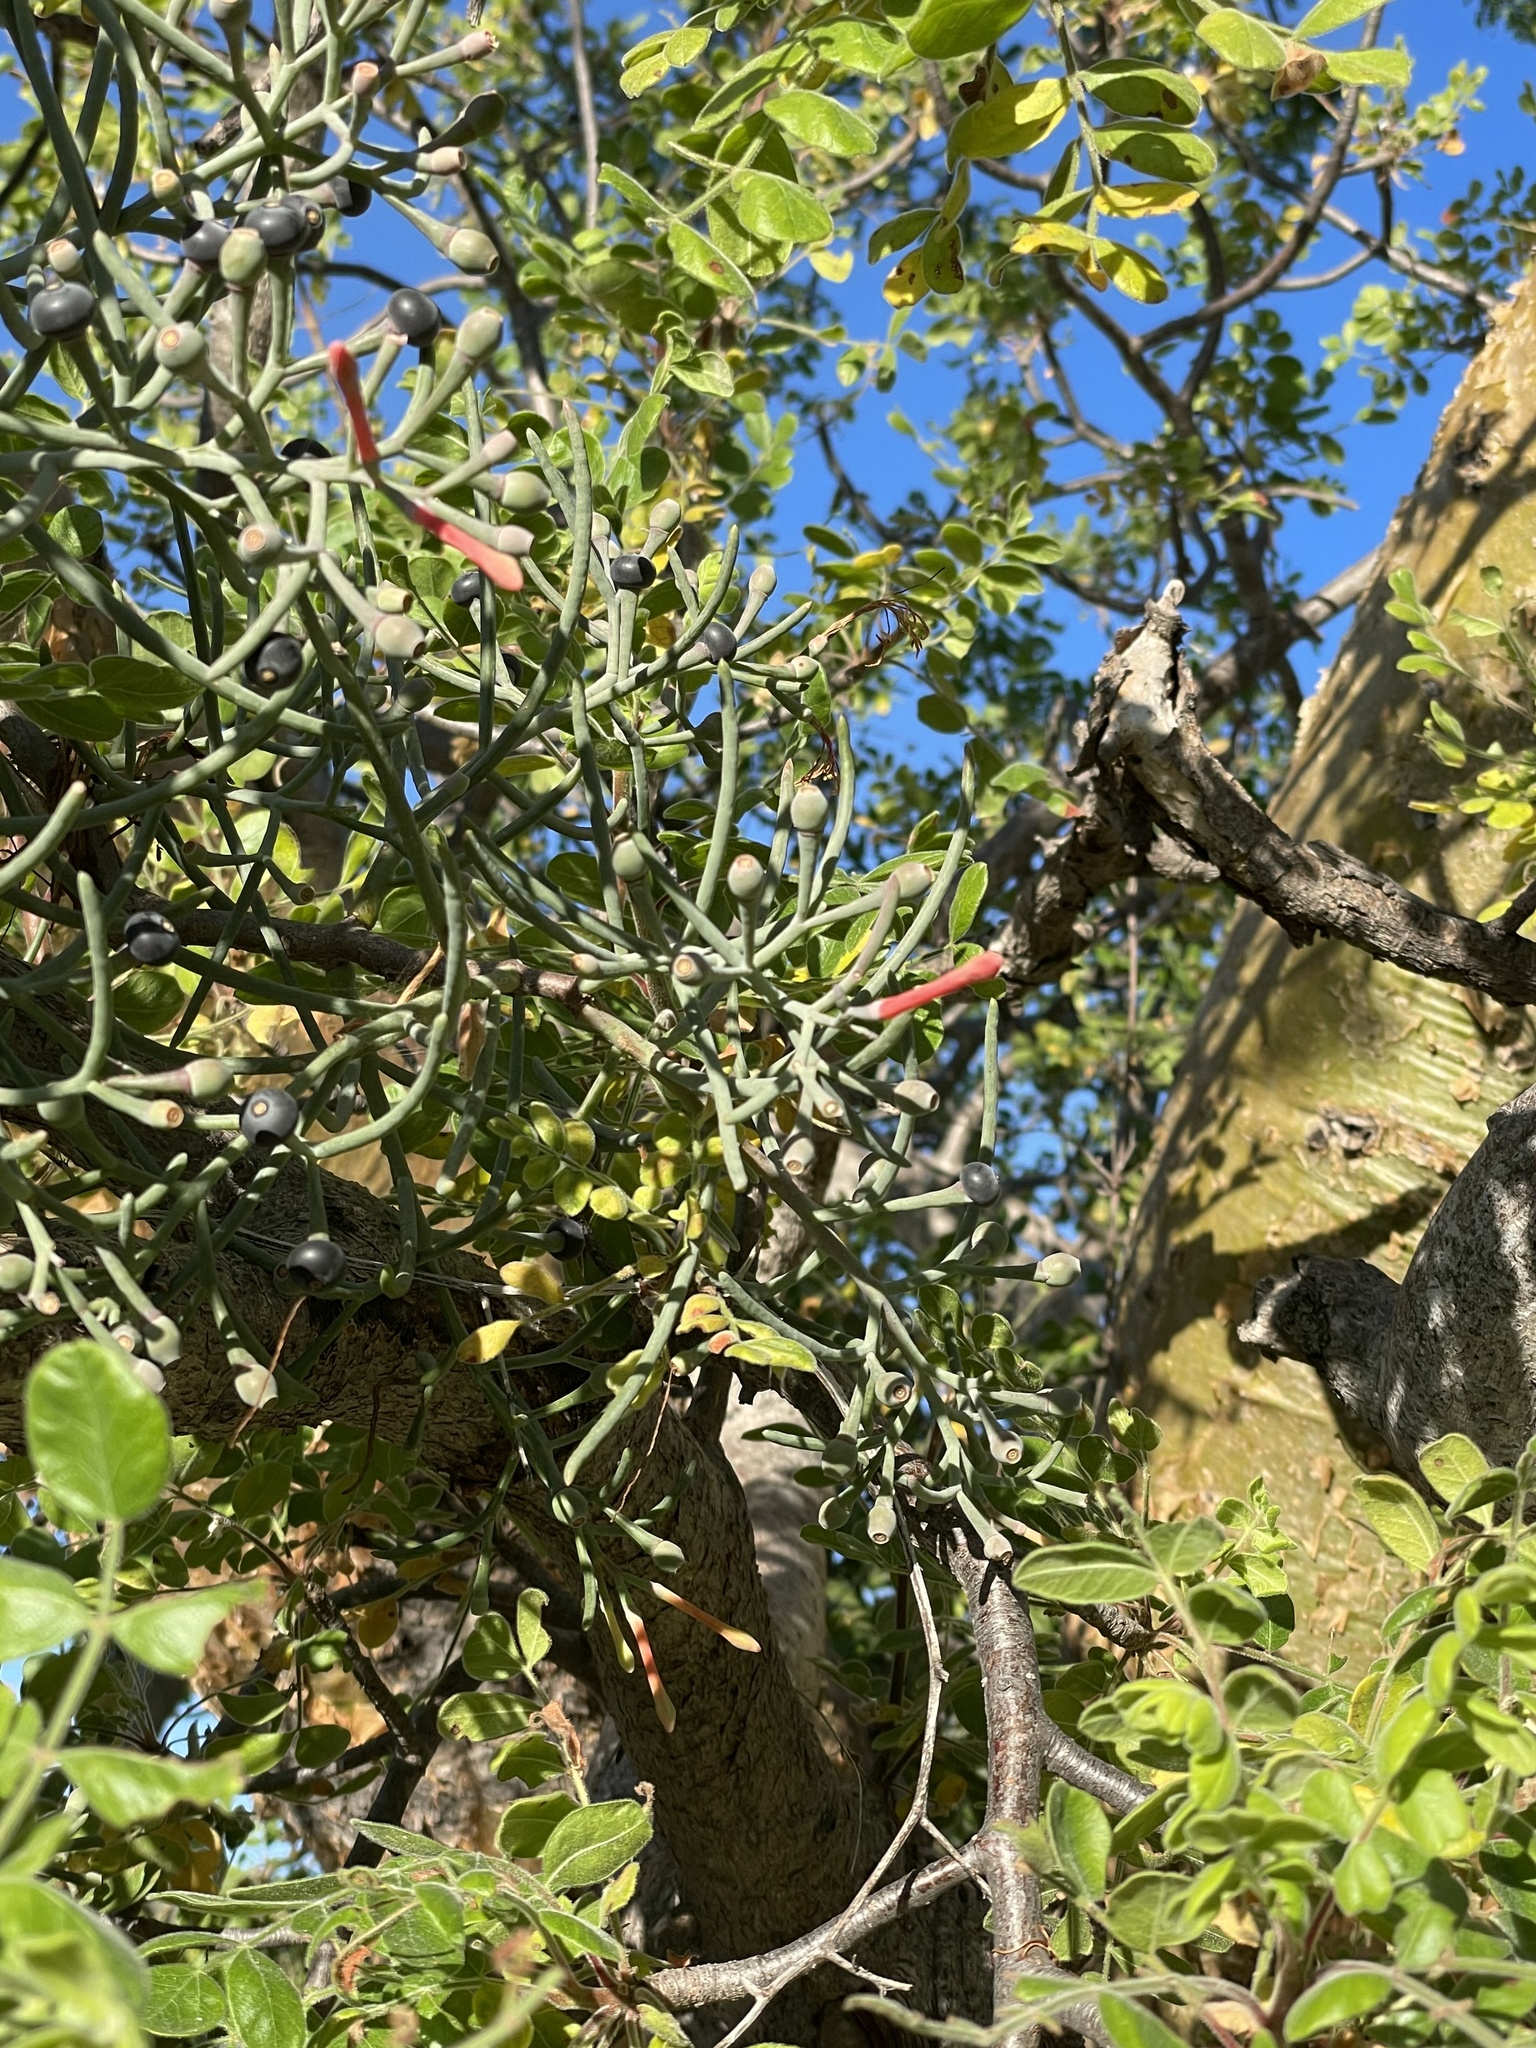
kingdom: Plantae
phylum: Tracheophyta
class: Magnoliopsida
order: Santalales
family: Loranthaceae
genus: Psittacanthus
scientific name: Psittacanthus sonorae
